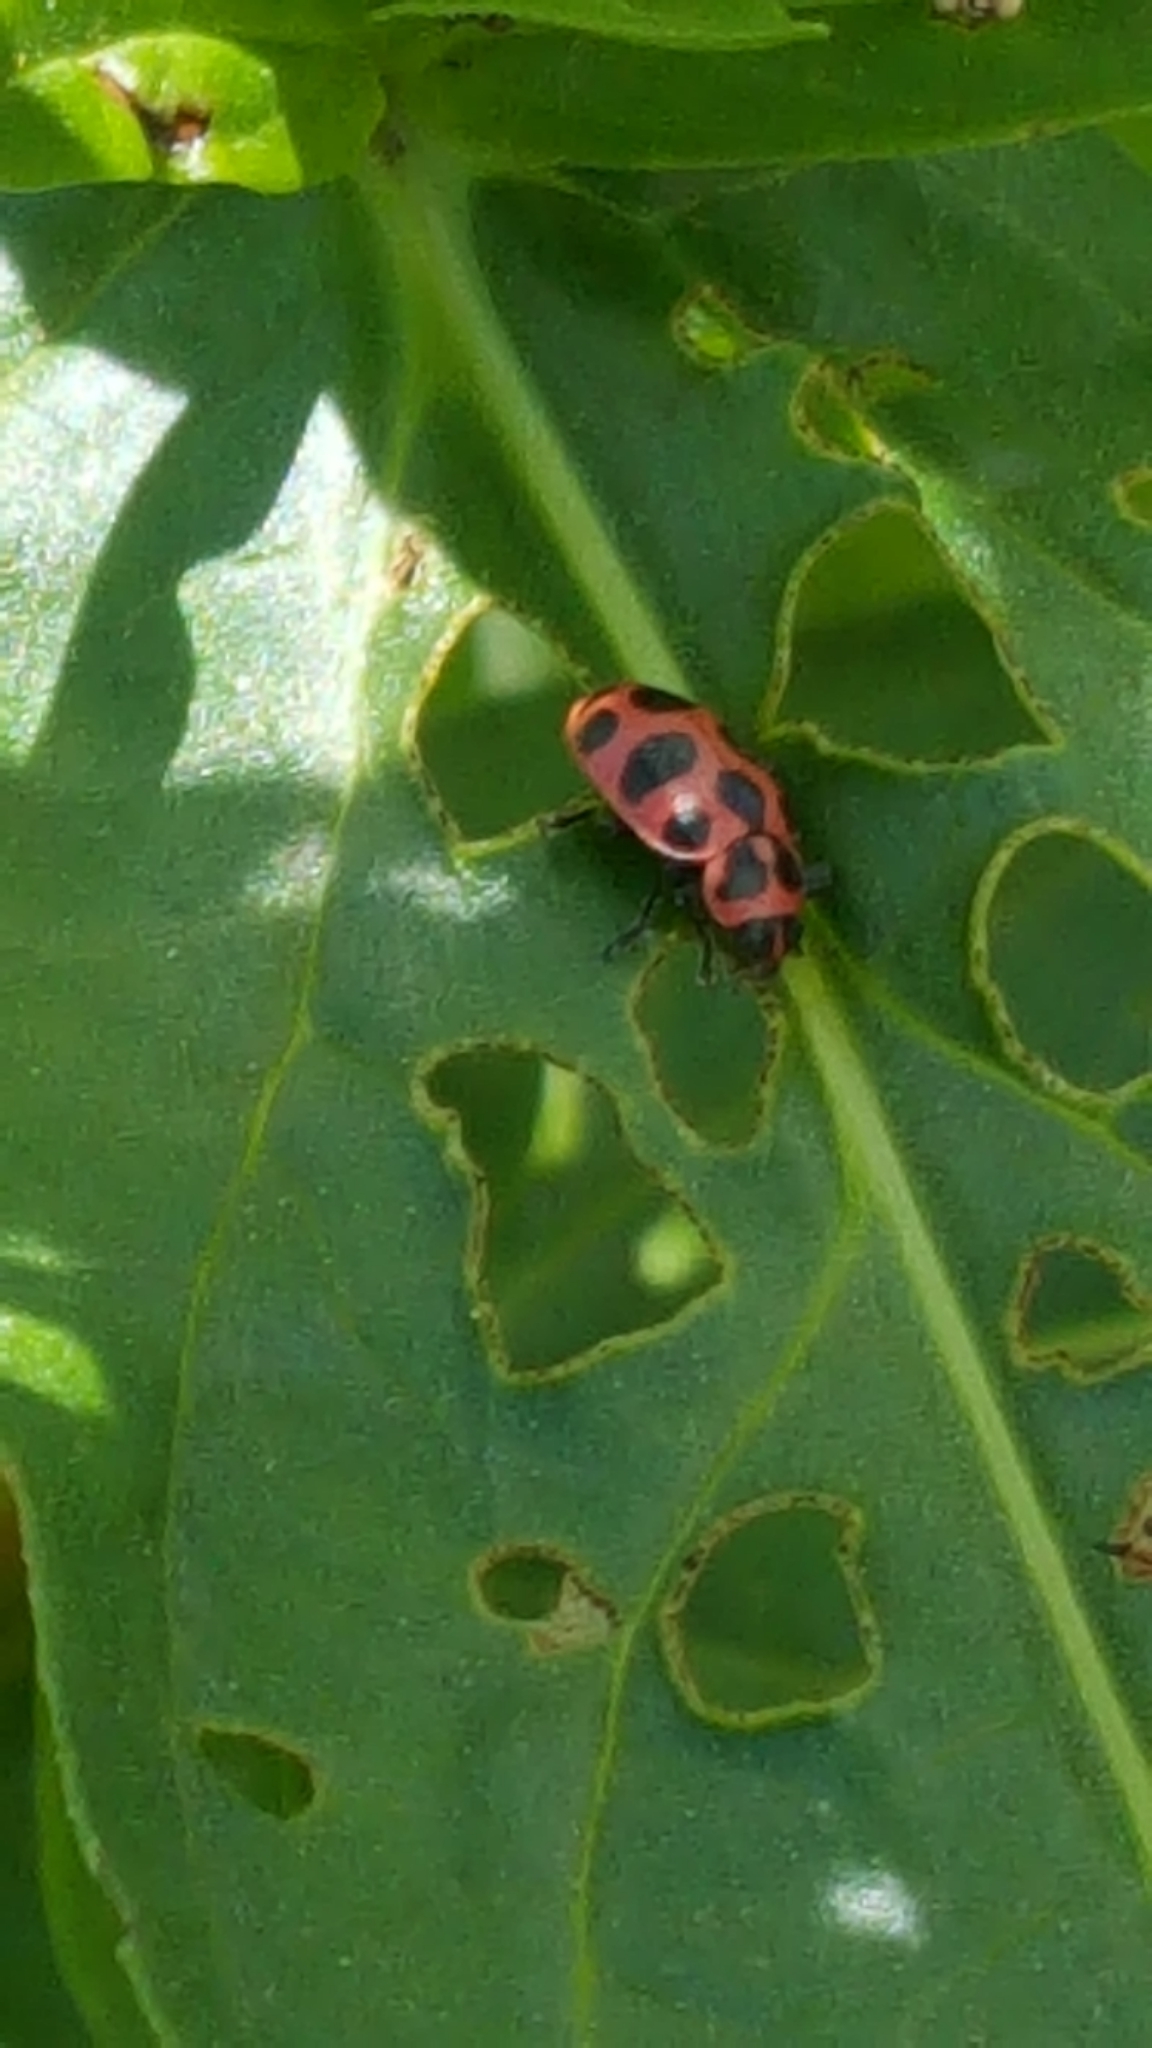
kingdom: Animalia
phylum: Arthropoda
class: Insecta
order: Coleoptera
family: Coccinellidae
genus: Coleomegilla
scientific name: Coleomegilla maculata
